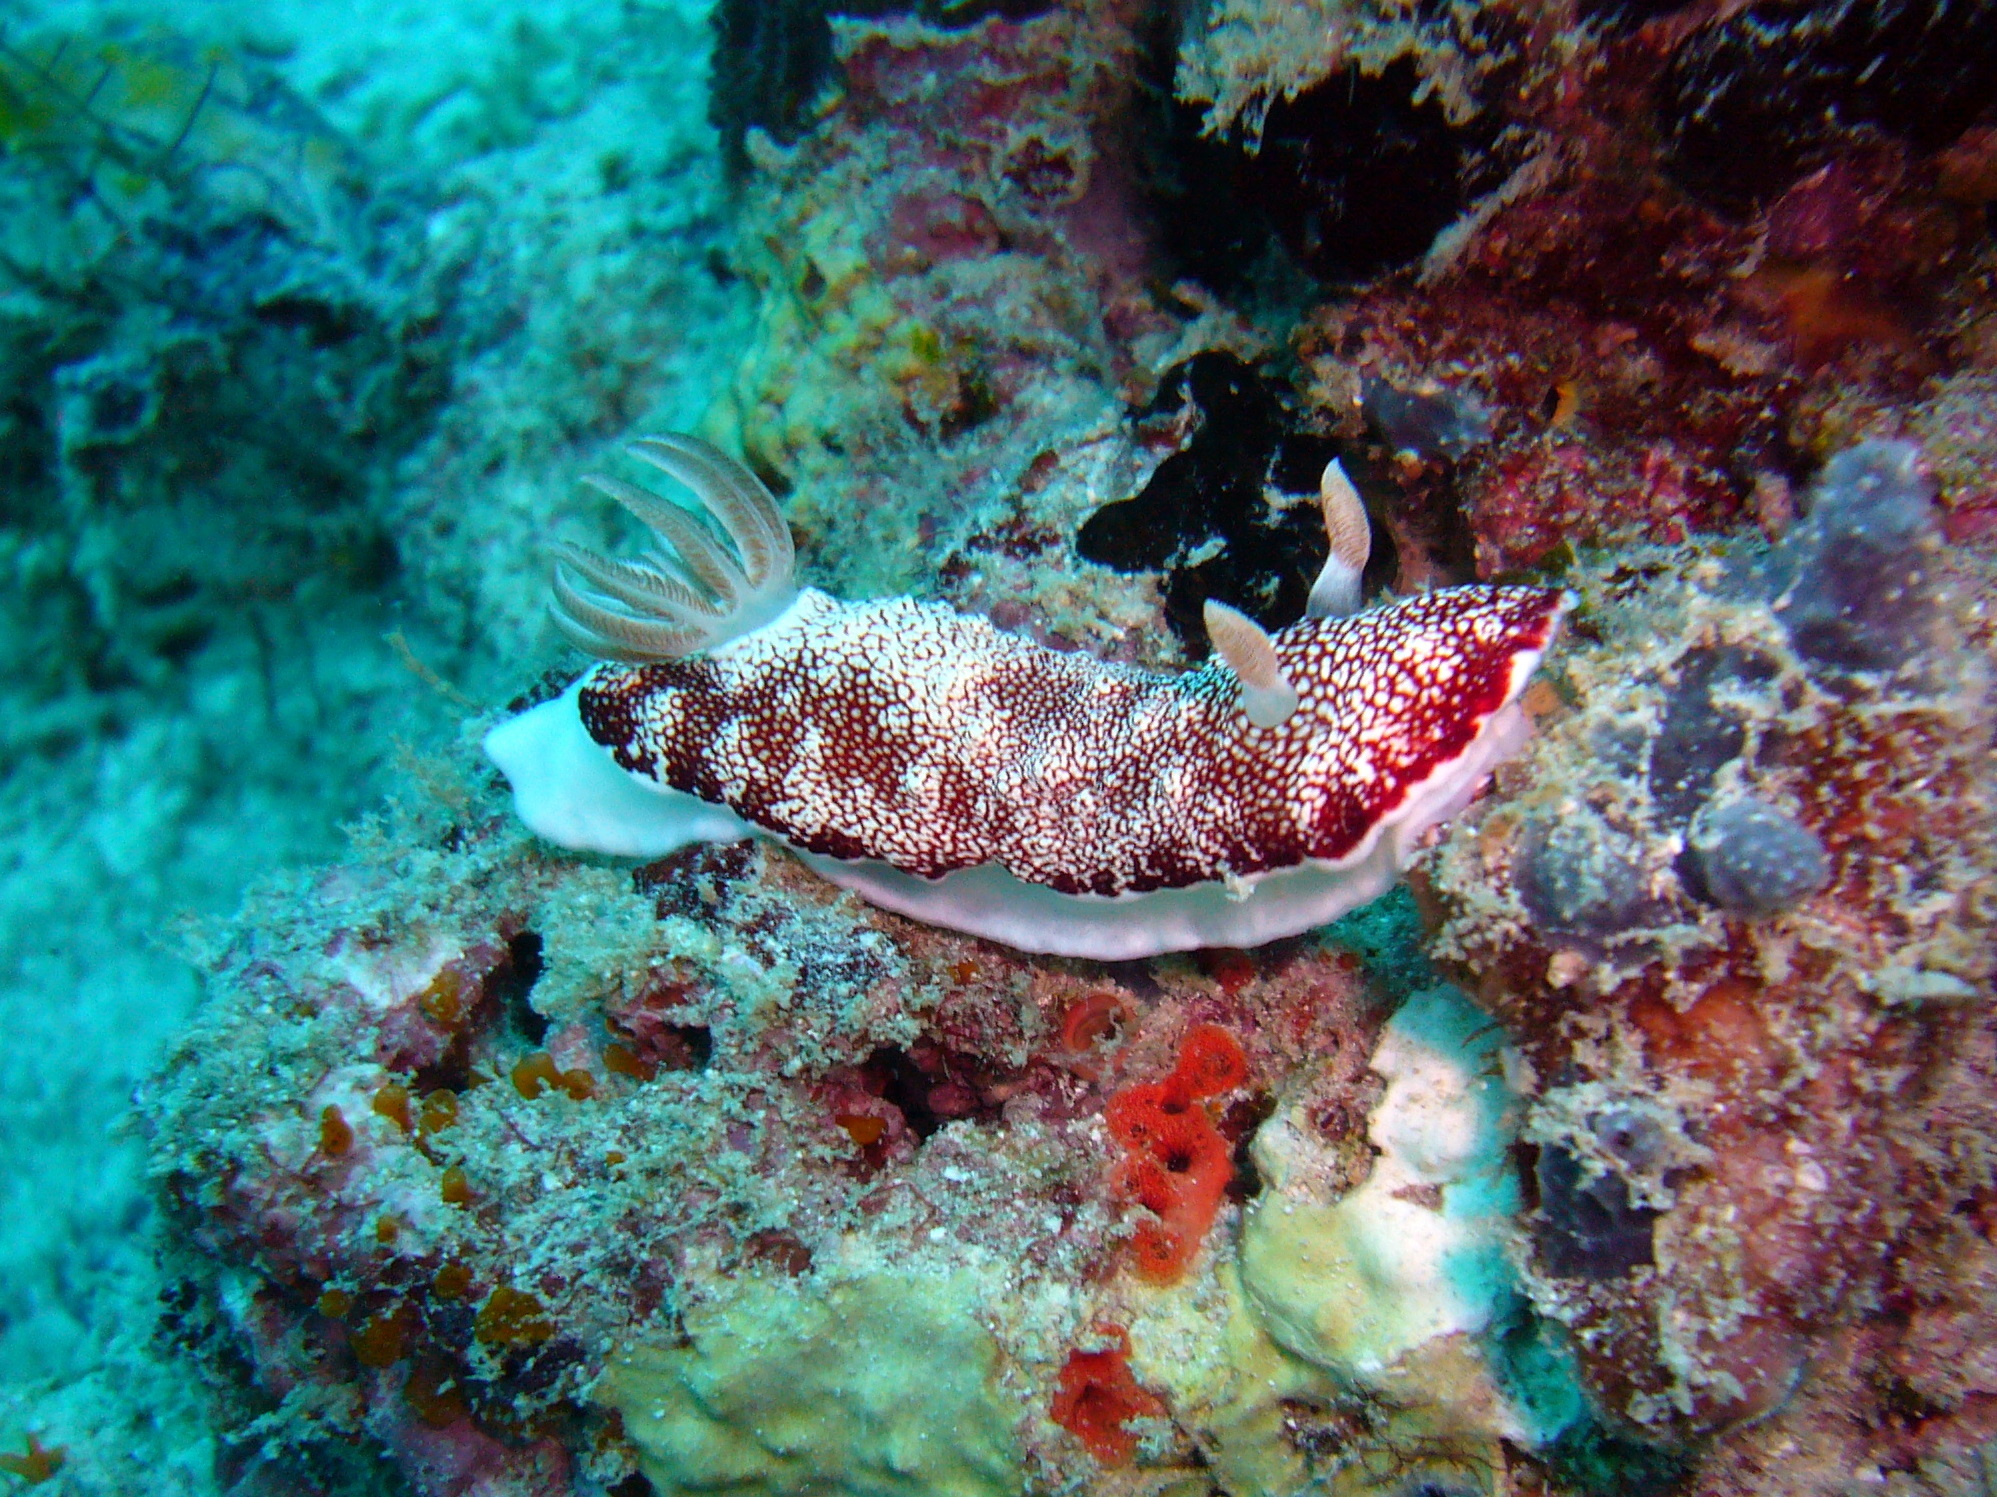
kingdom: Animalia
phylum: Mollusca
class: Gastropoda
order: Nudibranchia
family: Chromodorididae
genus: Goniobranchus
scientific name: Goniobranchus reticulatus
